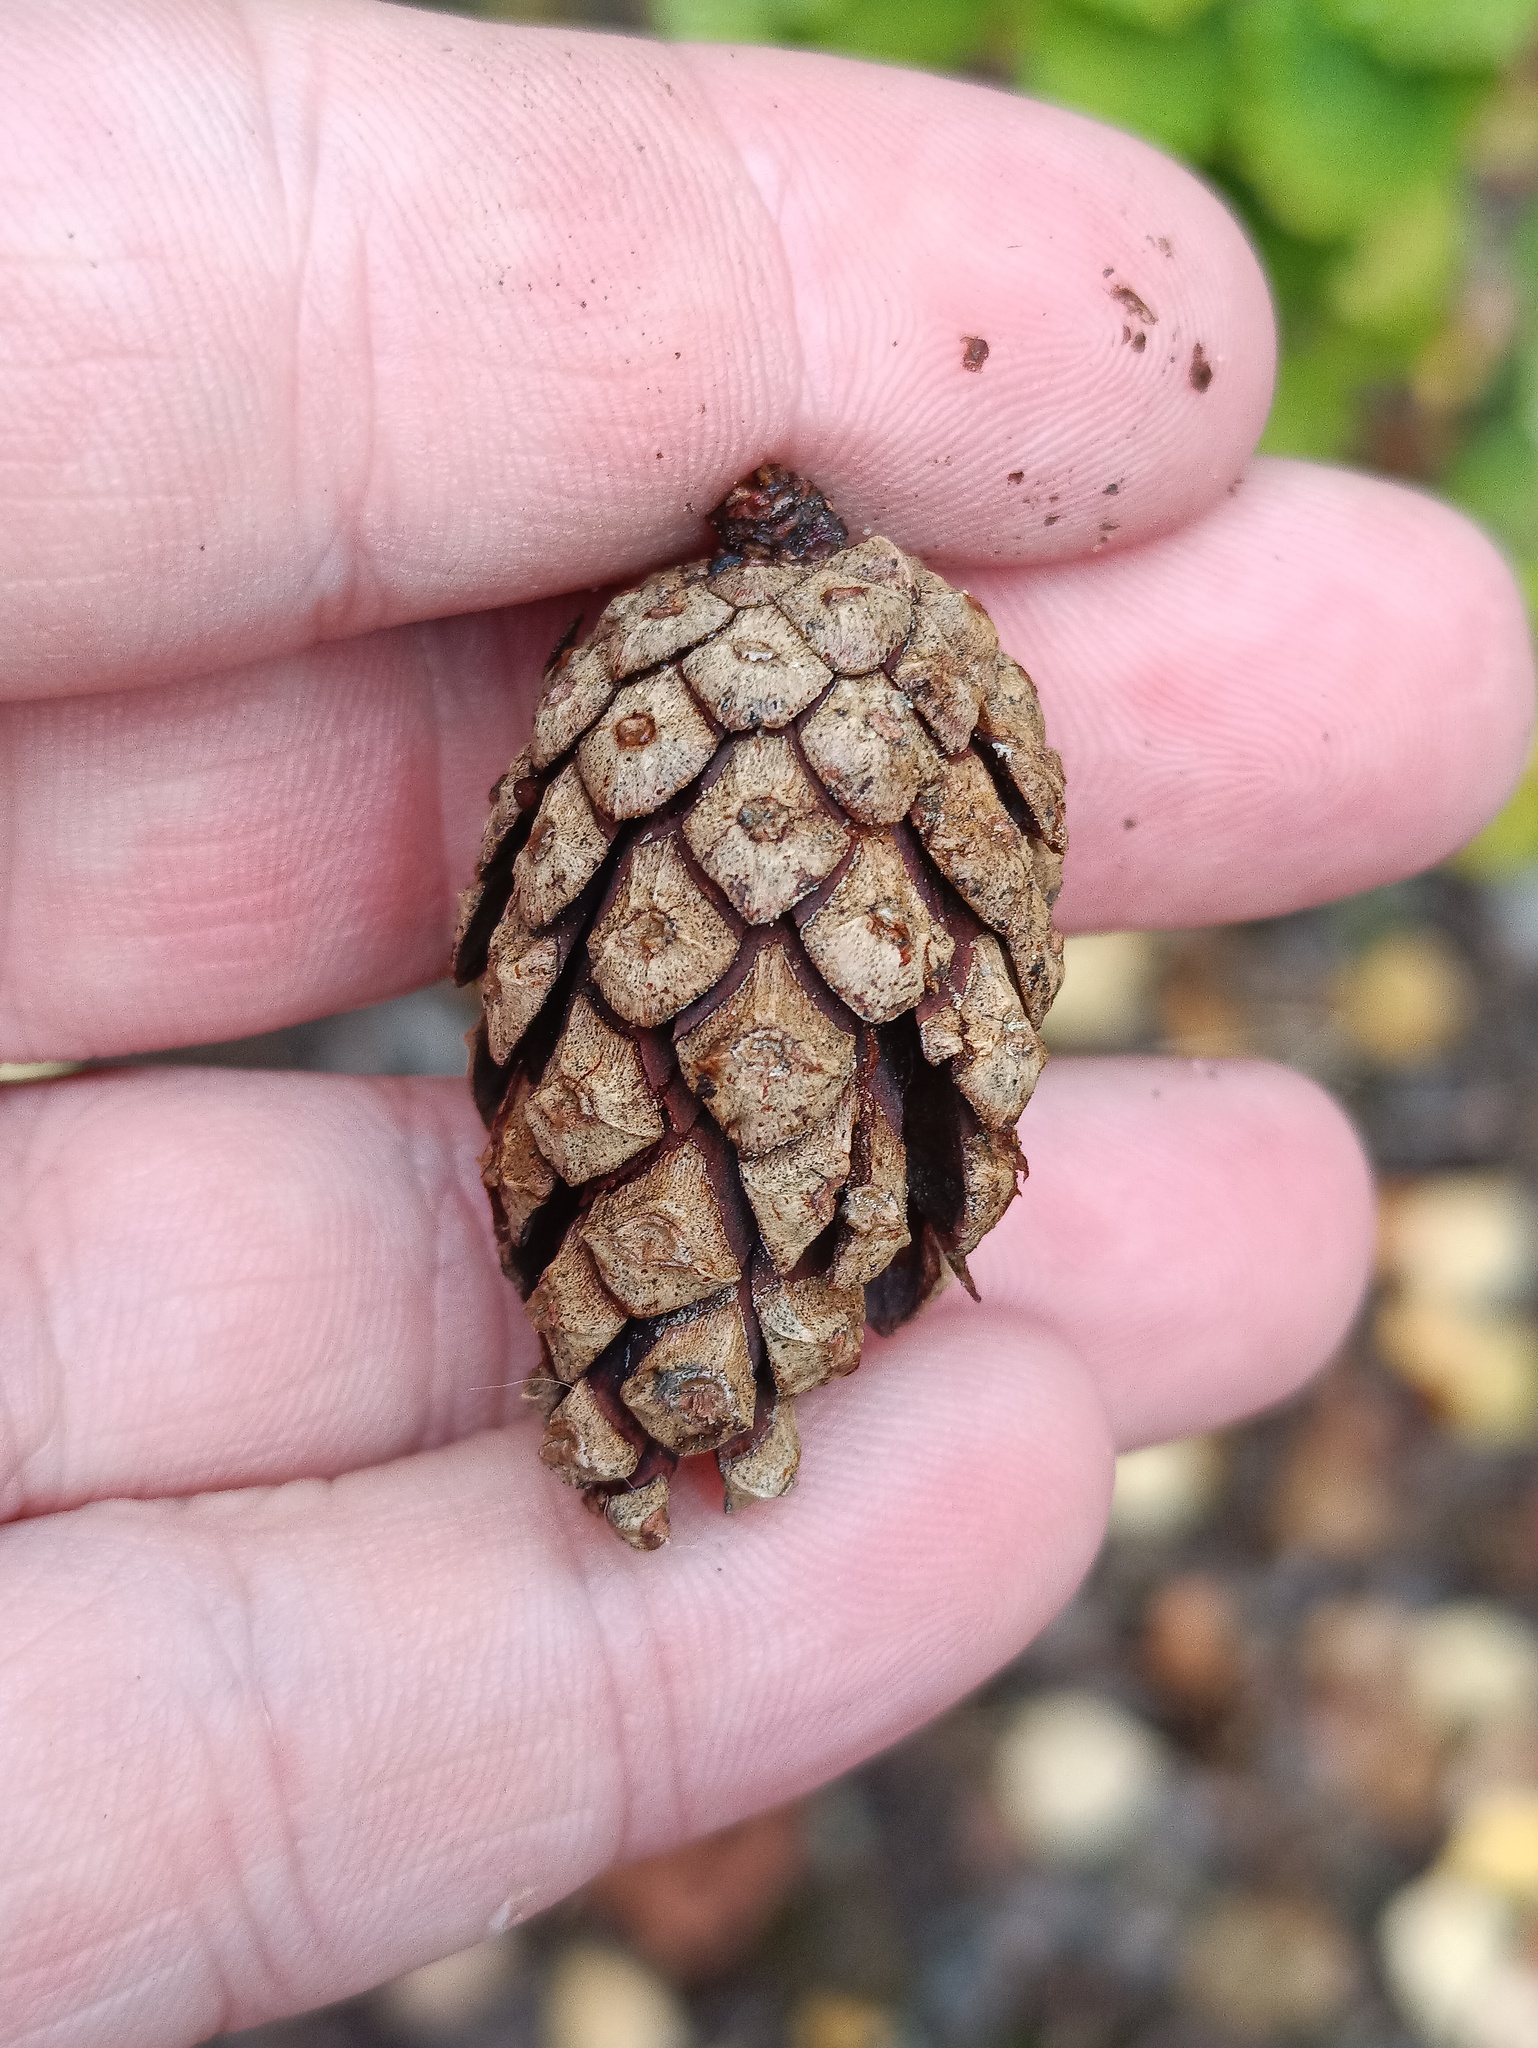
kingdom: Plantae
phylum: Tracheophyta
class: Pinopsida
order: Pinales
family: Pinaceae
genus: Pinus
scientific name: Pinus sylvestris
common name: Scots pine
